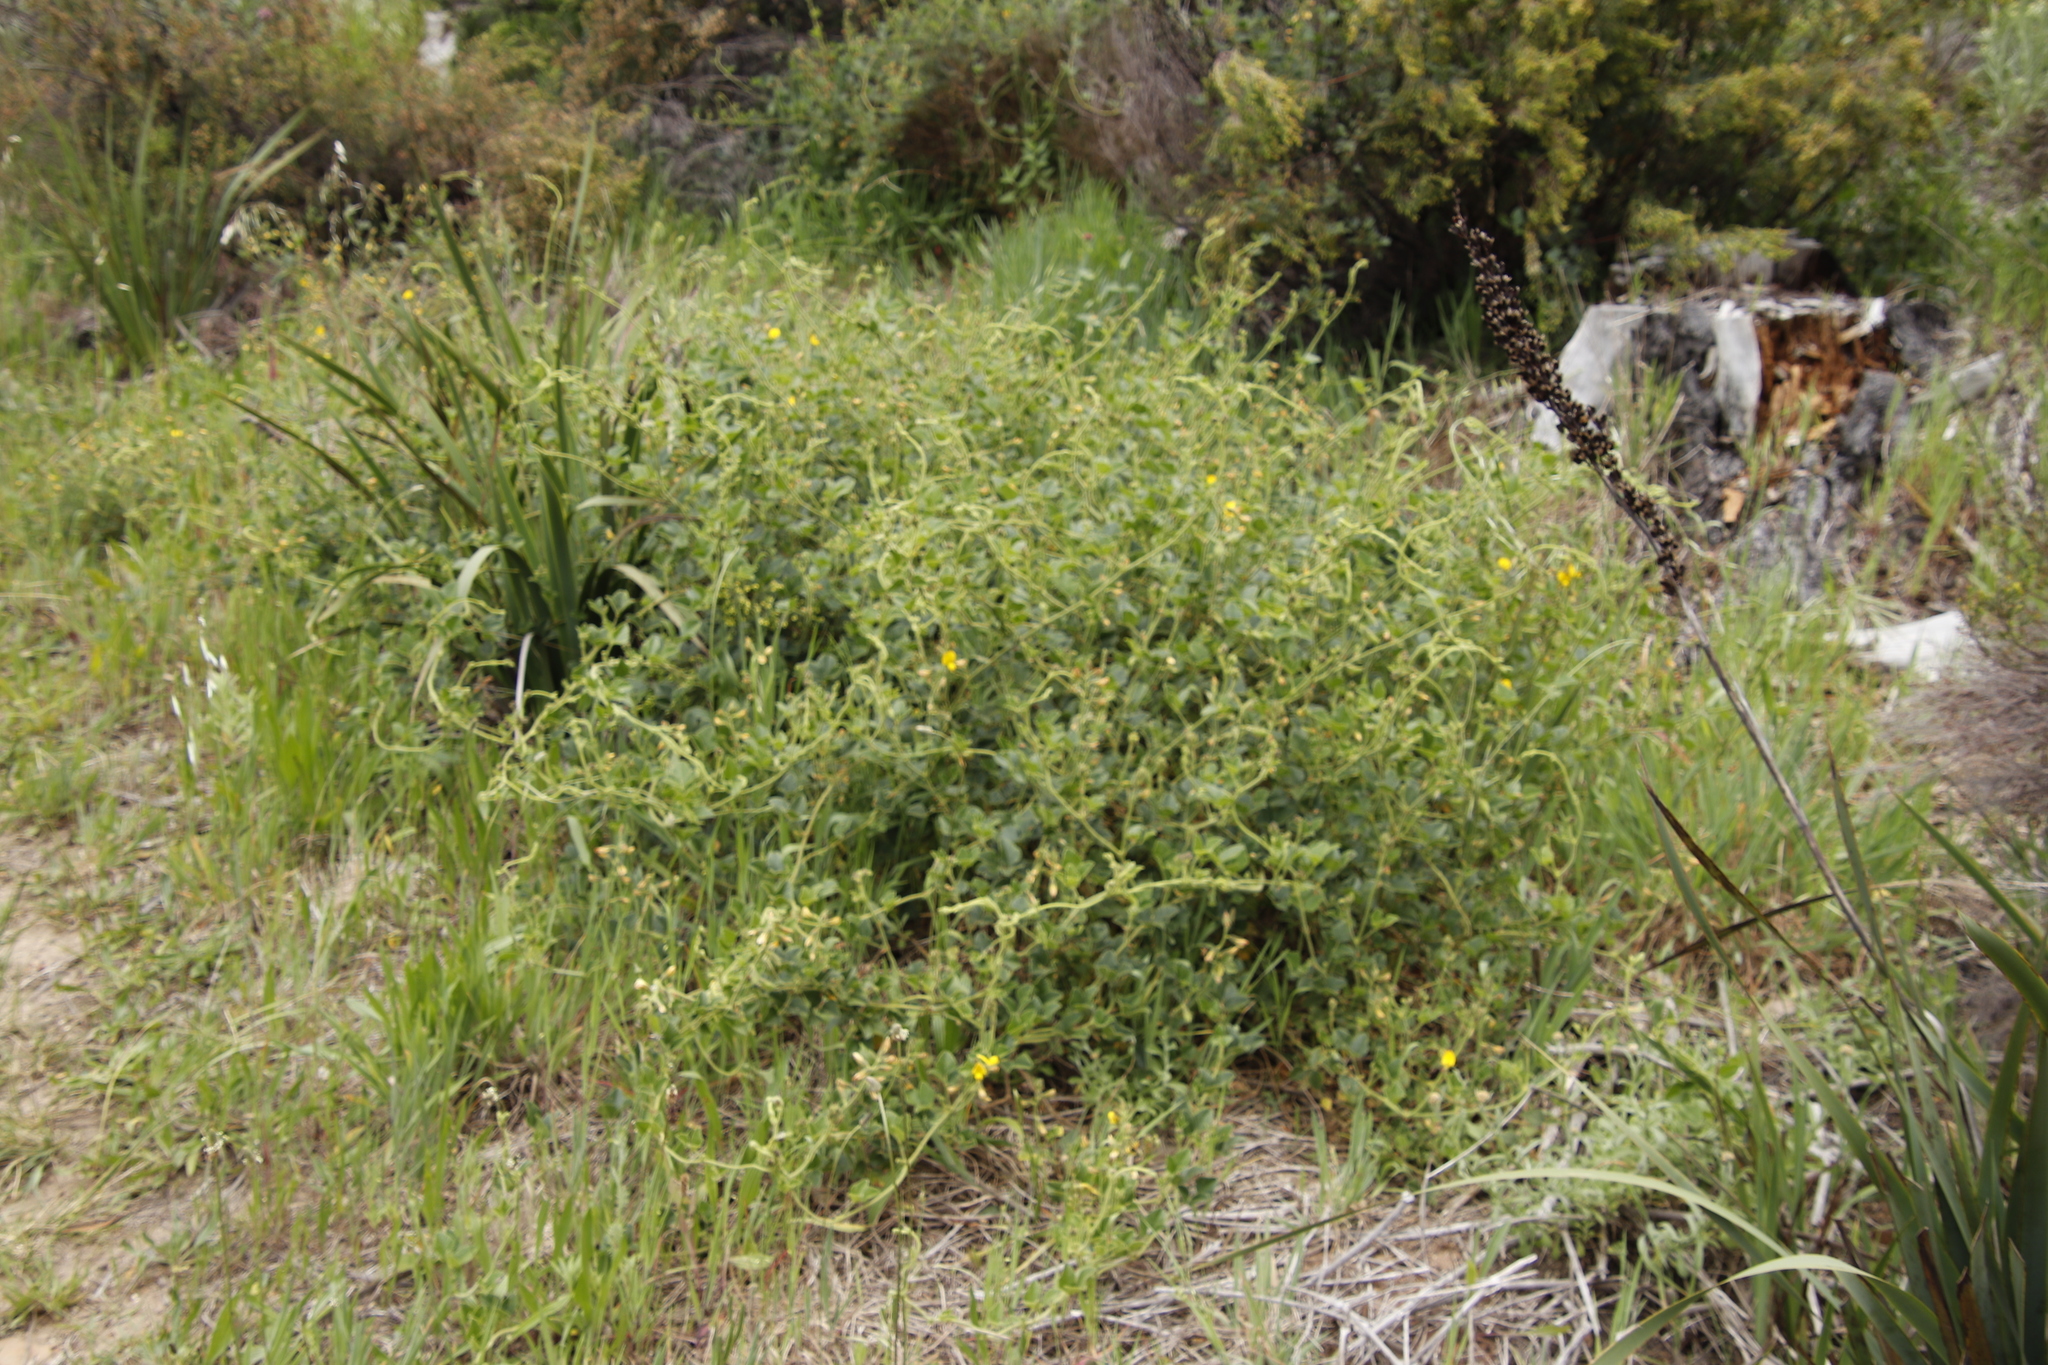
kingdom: Plantae
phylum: Tracheophyta
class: Magnoliopsida
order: Fabales
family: Fabaceae
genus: Bolusafra
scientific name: Bolusafra bituminosa
